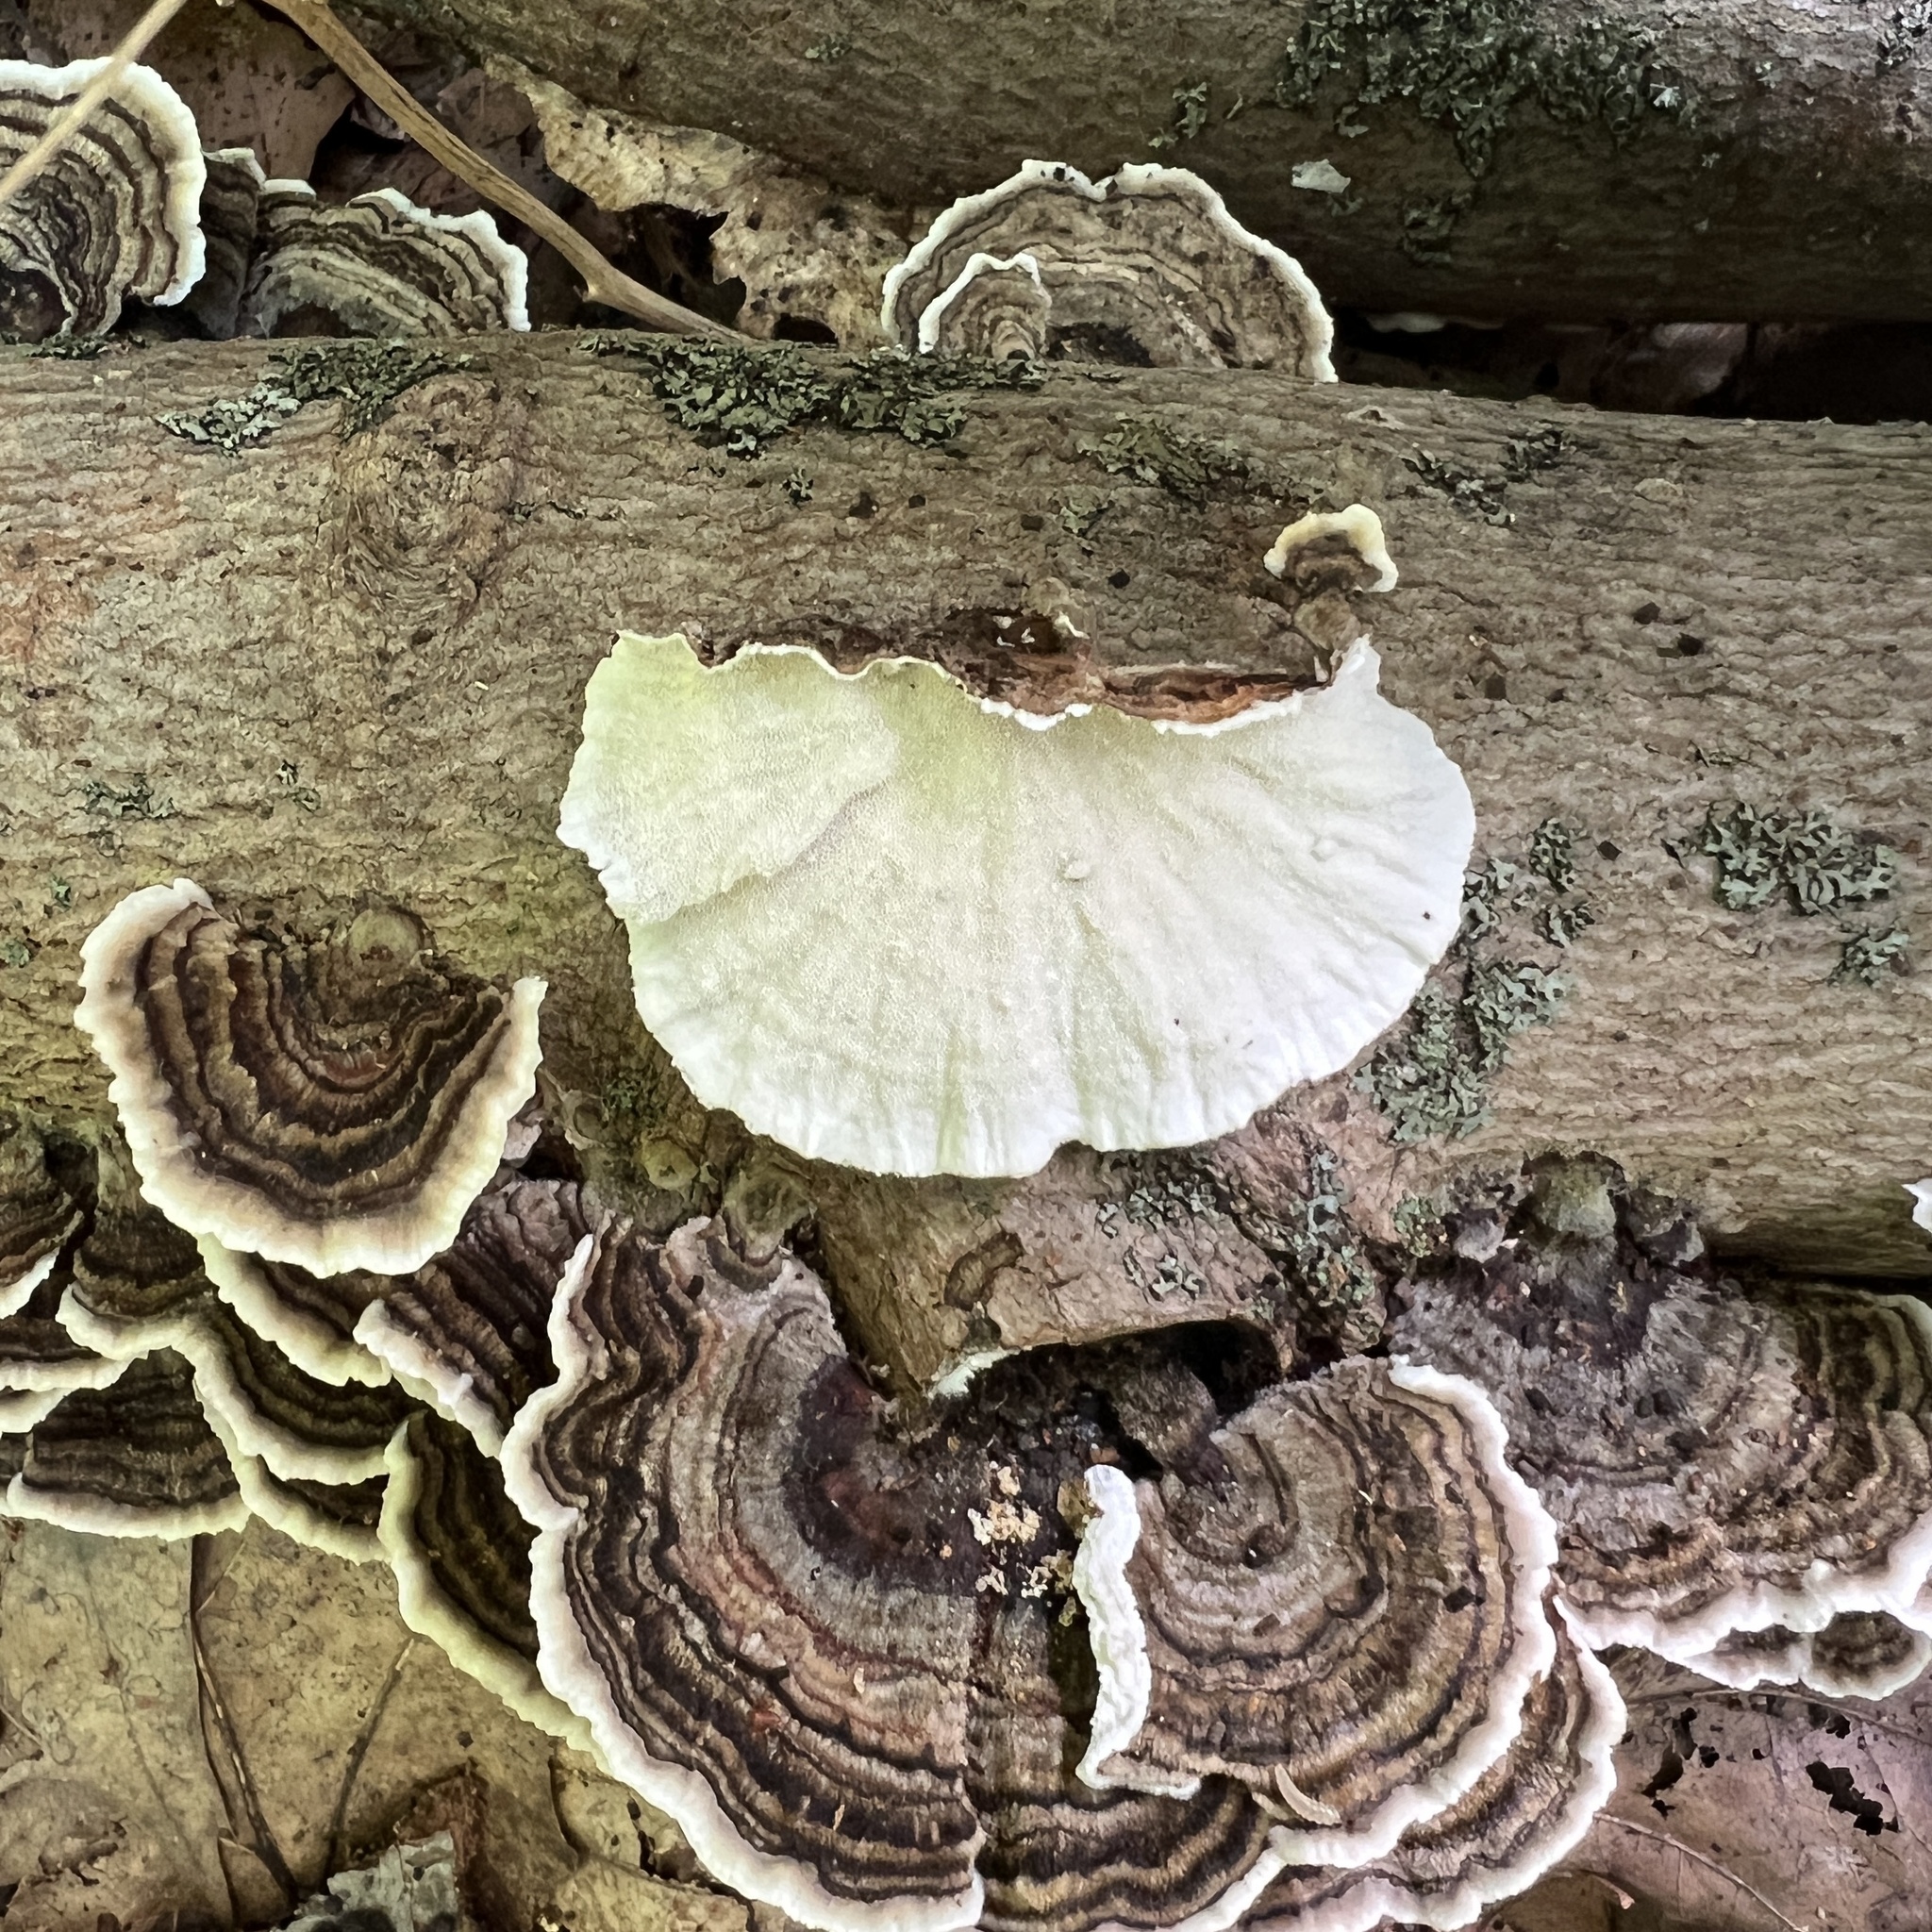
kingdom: Fungi
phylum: Basidiomycota
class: Agaricomycetes
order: Polyporales
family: Polyporaceae
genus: Trametes
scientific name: Trametes versicolor
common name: Turkeytail
